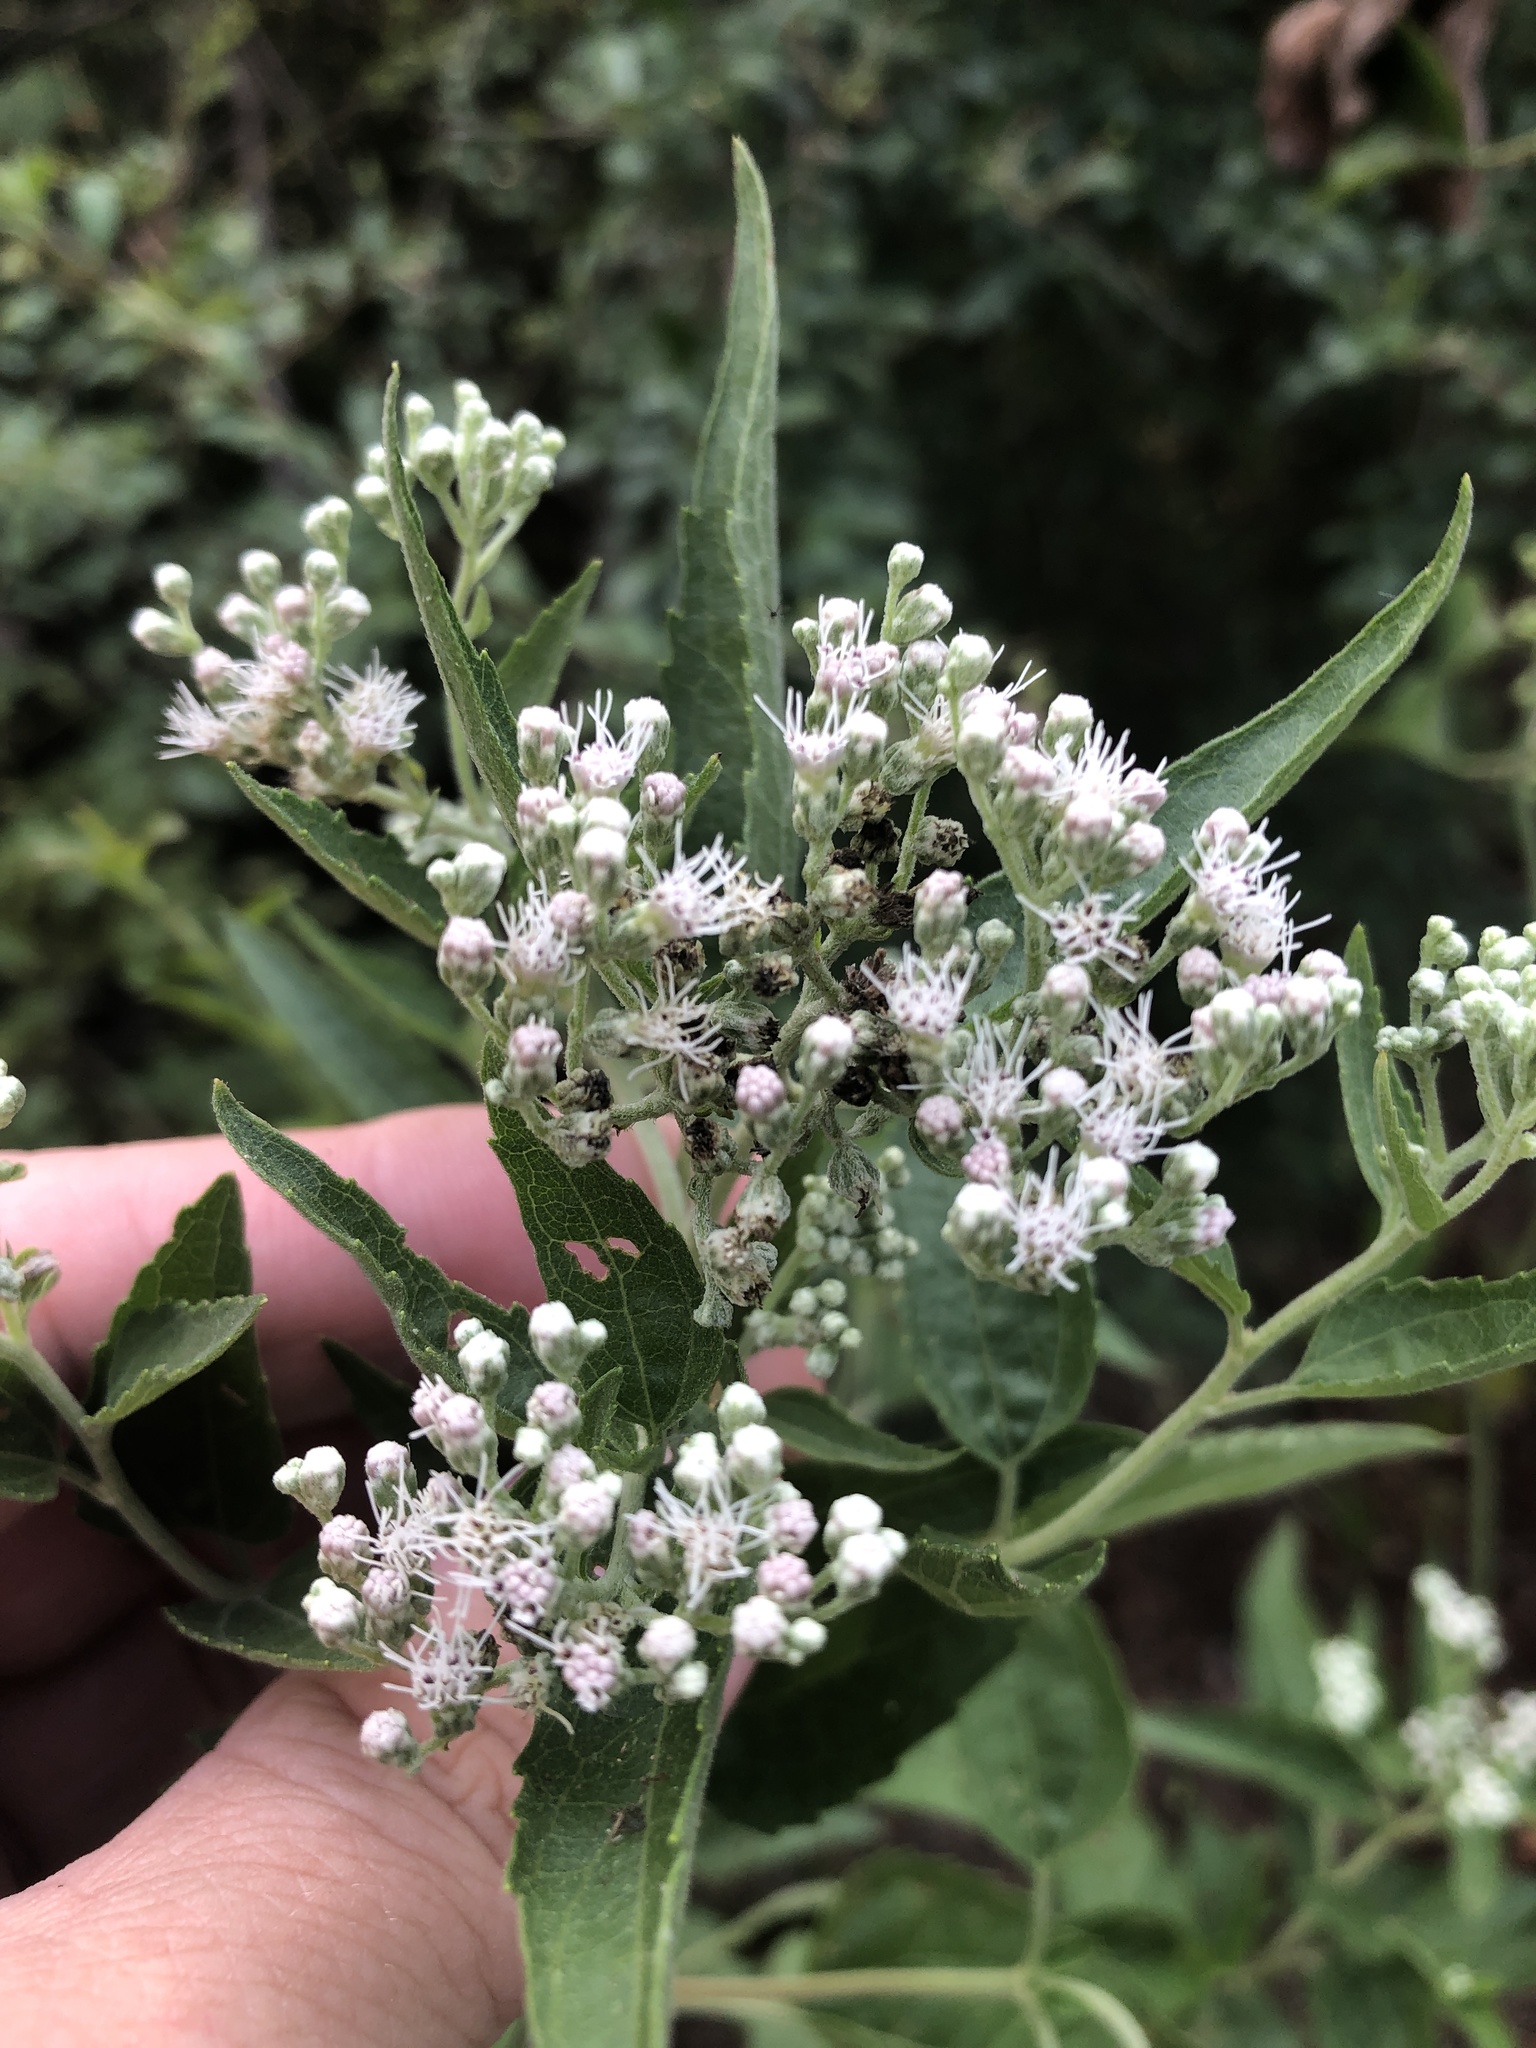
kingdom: Plantae
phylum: Tracheophyta
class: Magnoliopsida
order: Asterales
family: Asteraceae
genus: Eupatorium
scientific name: Eupatorium serotinum
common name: Late boneset
